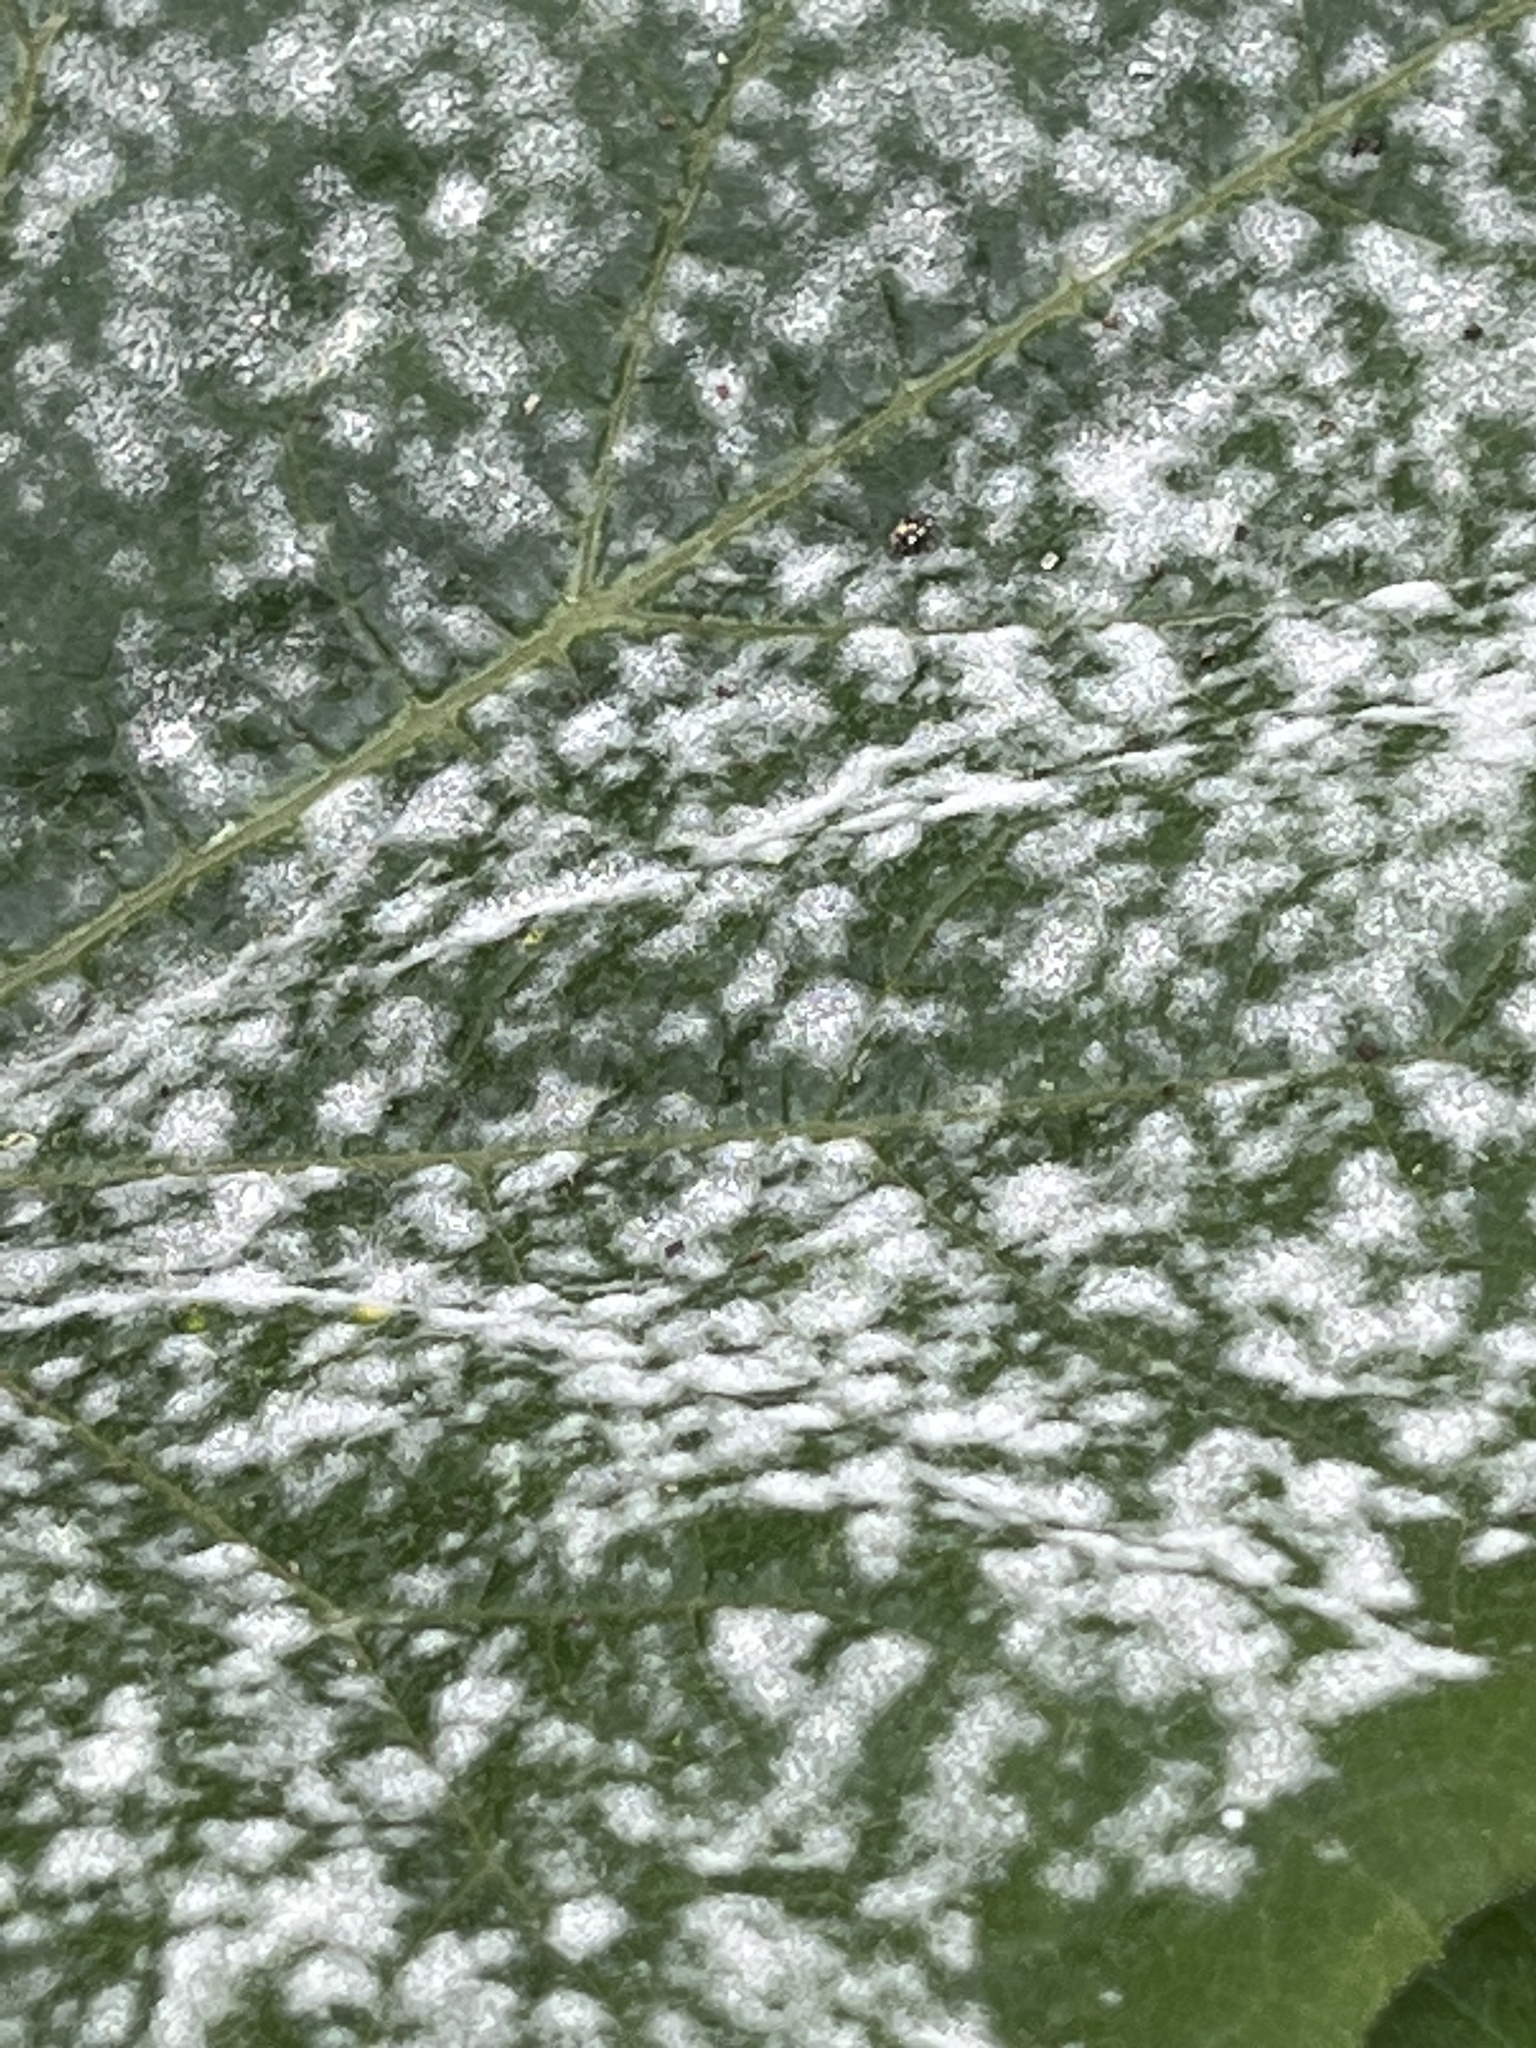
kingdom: Fungi
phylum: Ascomycota
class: Leotiomycetes
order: Helotiales
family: Erysiphaceae
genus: Podosphaera
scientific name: Podosphaera fusca
